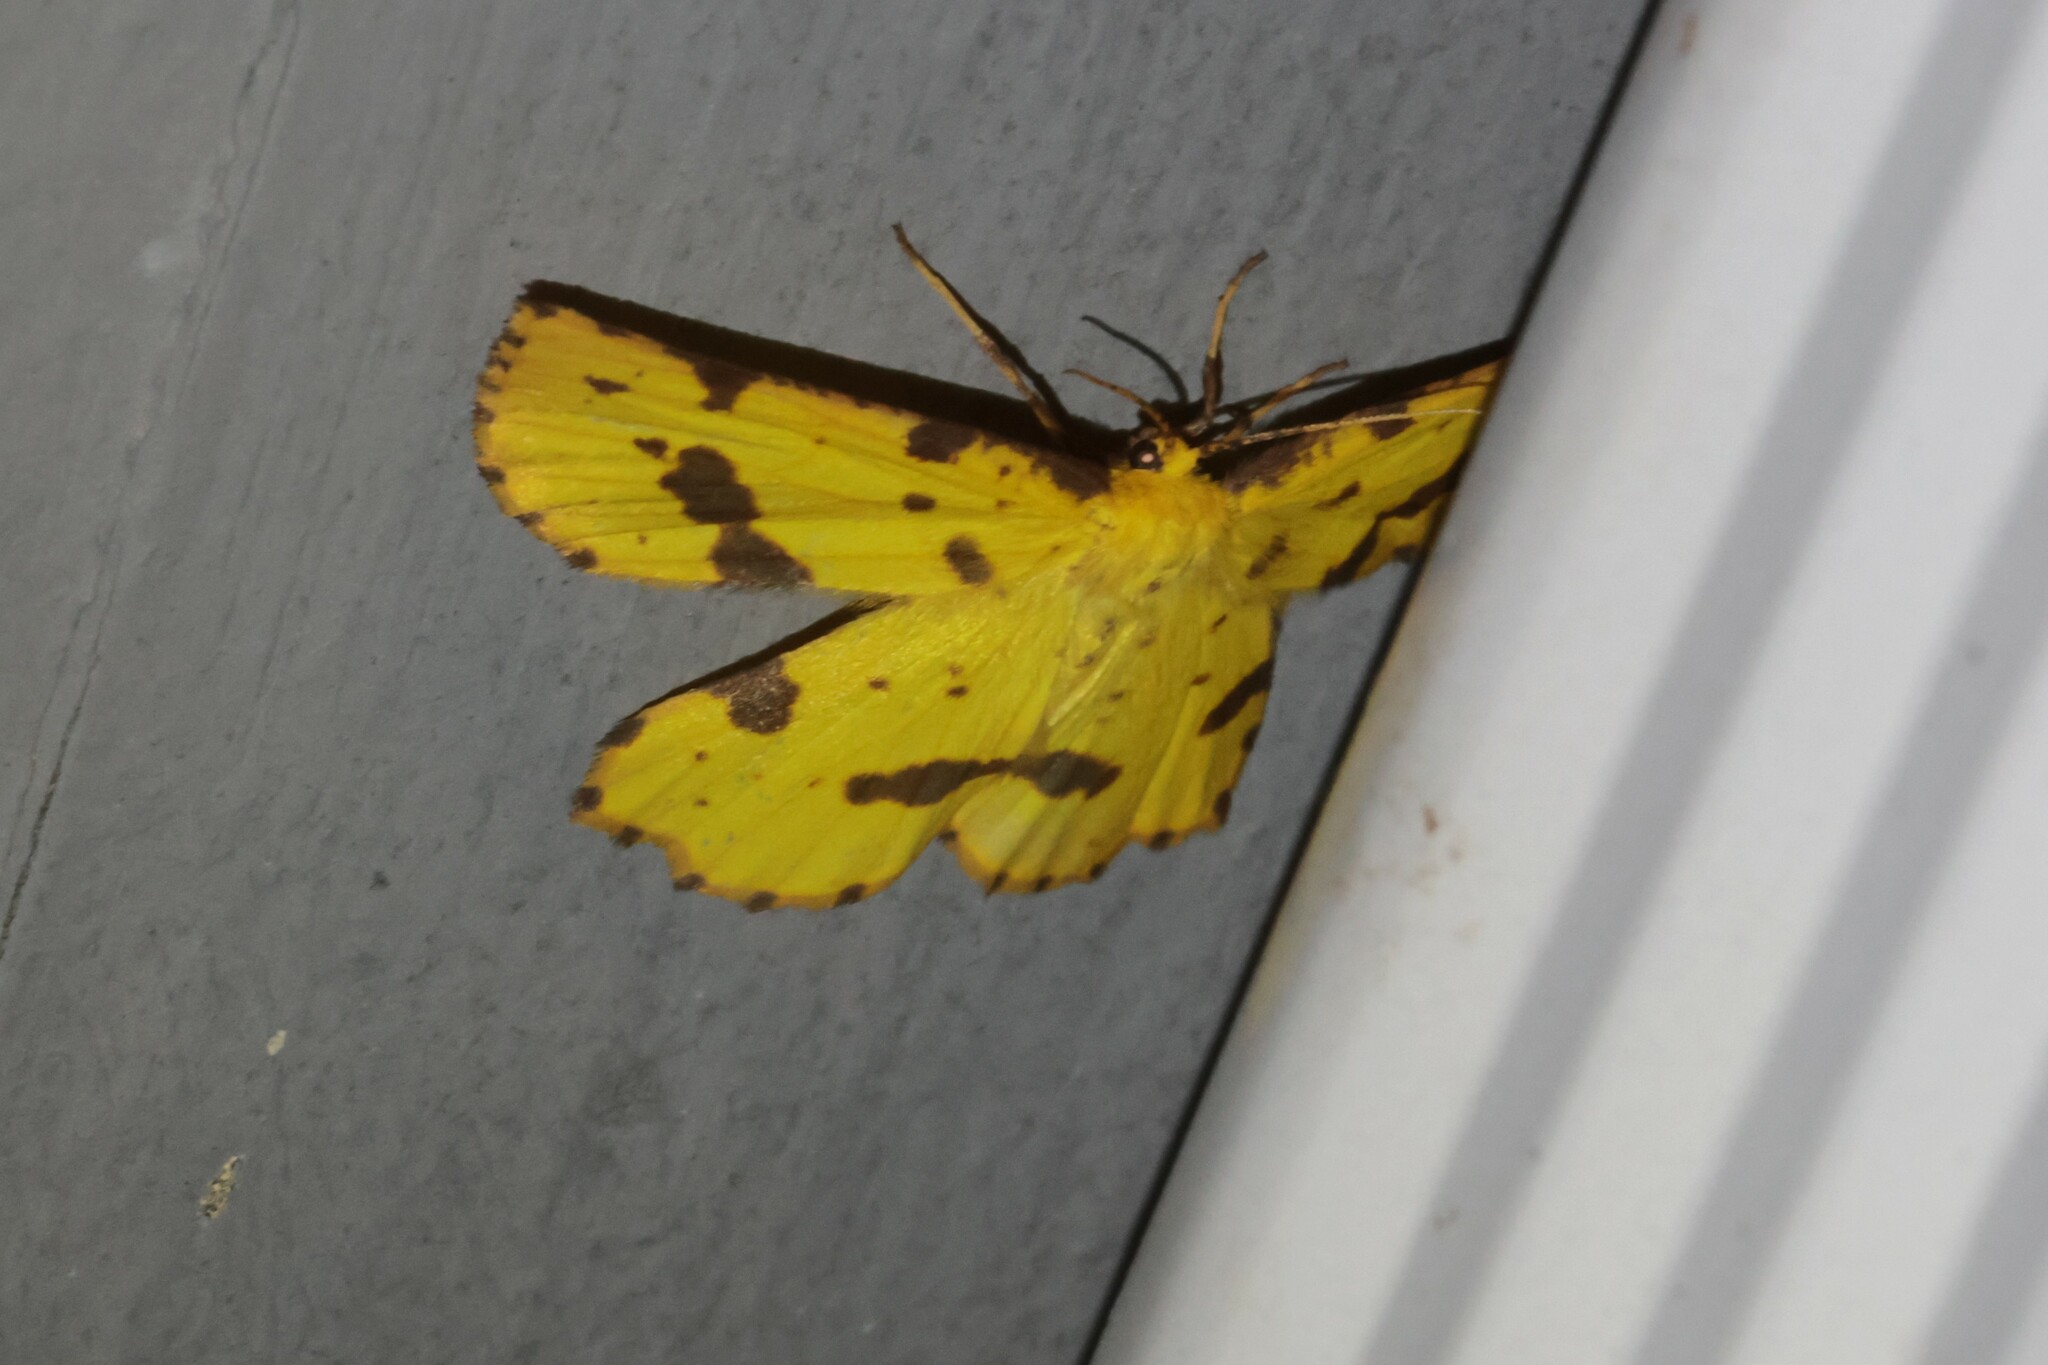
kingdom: Animalia
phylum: Arthropoda
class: Insecta
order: Lepidoptera
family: Geometridae
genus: Xanthotype
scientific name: Xanthotype
